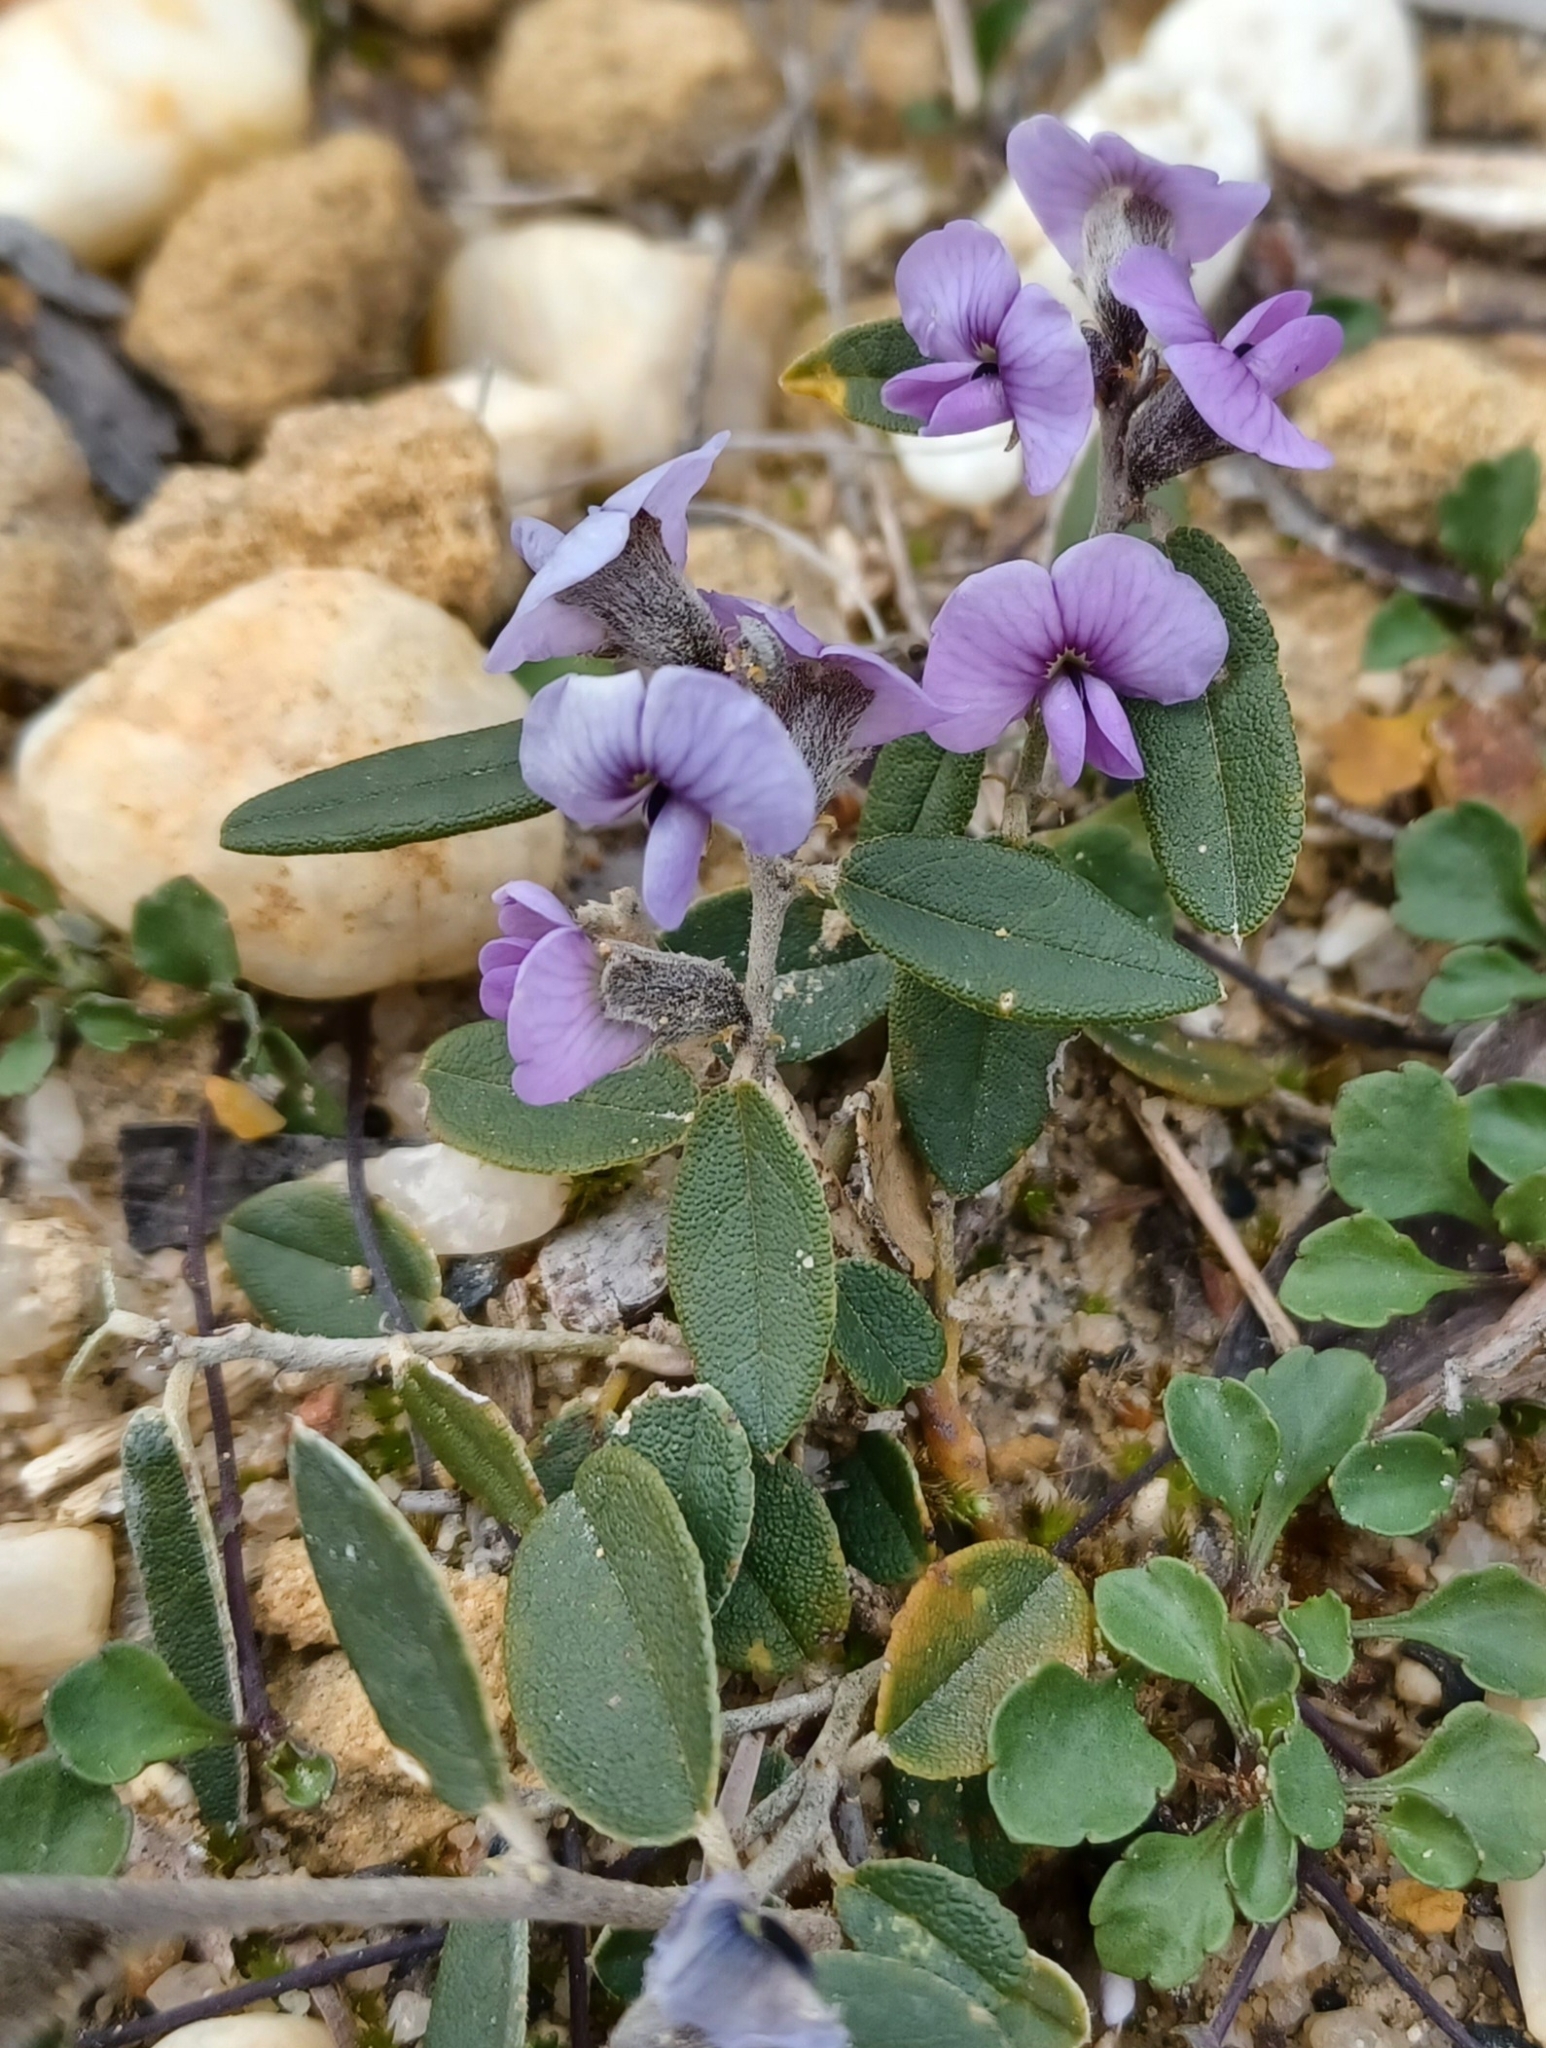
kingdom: Plantae
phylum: Tracheophyta
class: Magnoliopsida
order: Fabales
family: Fabaceae
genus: Hovea
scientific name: Hovea heterophylla
